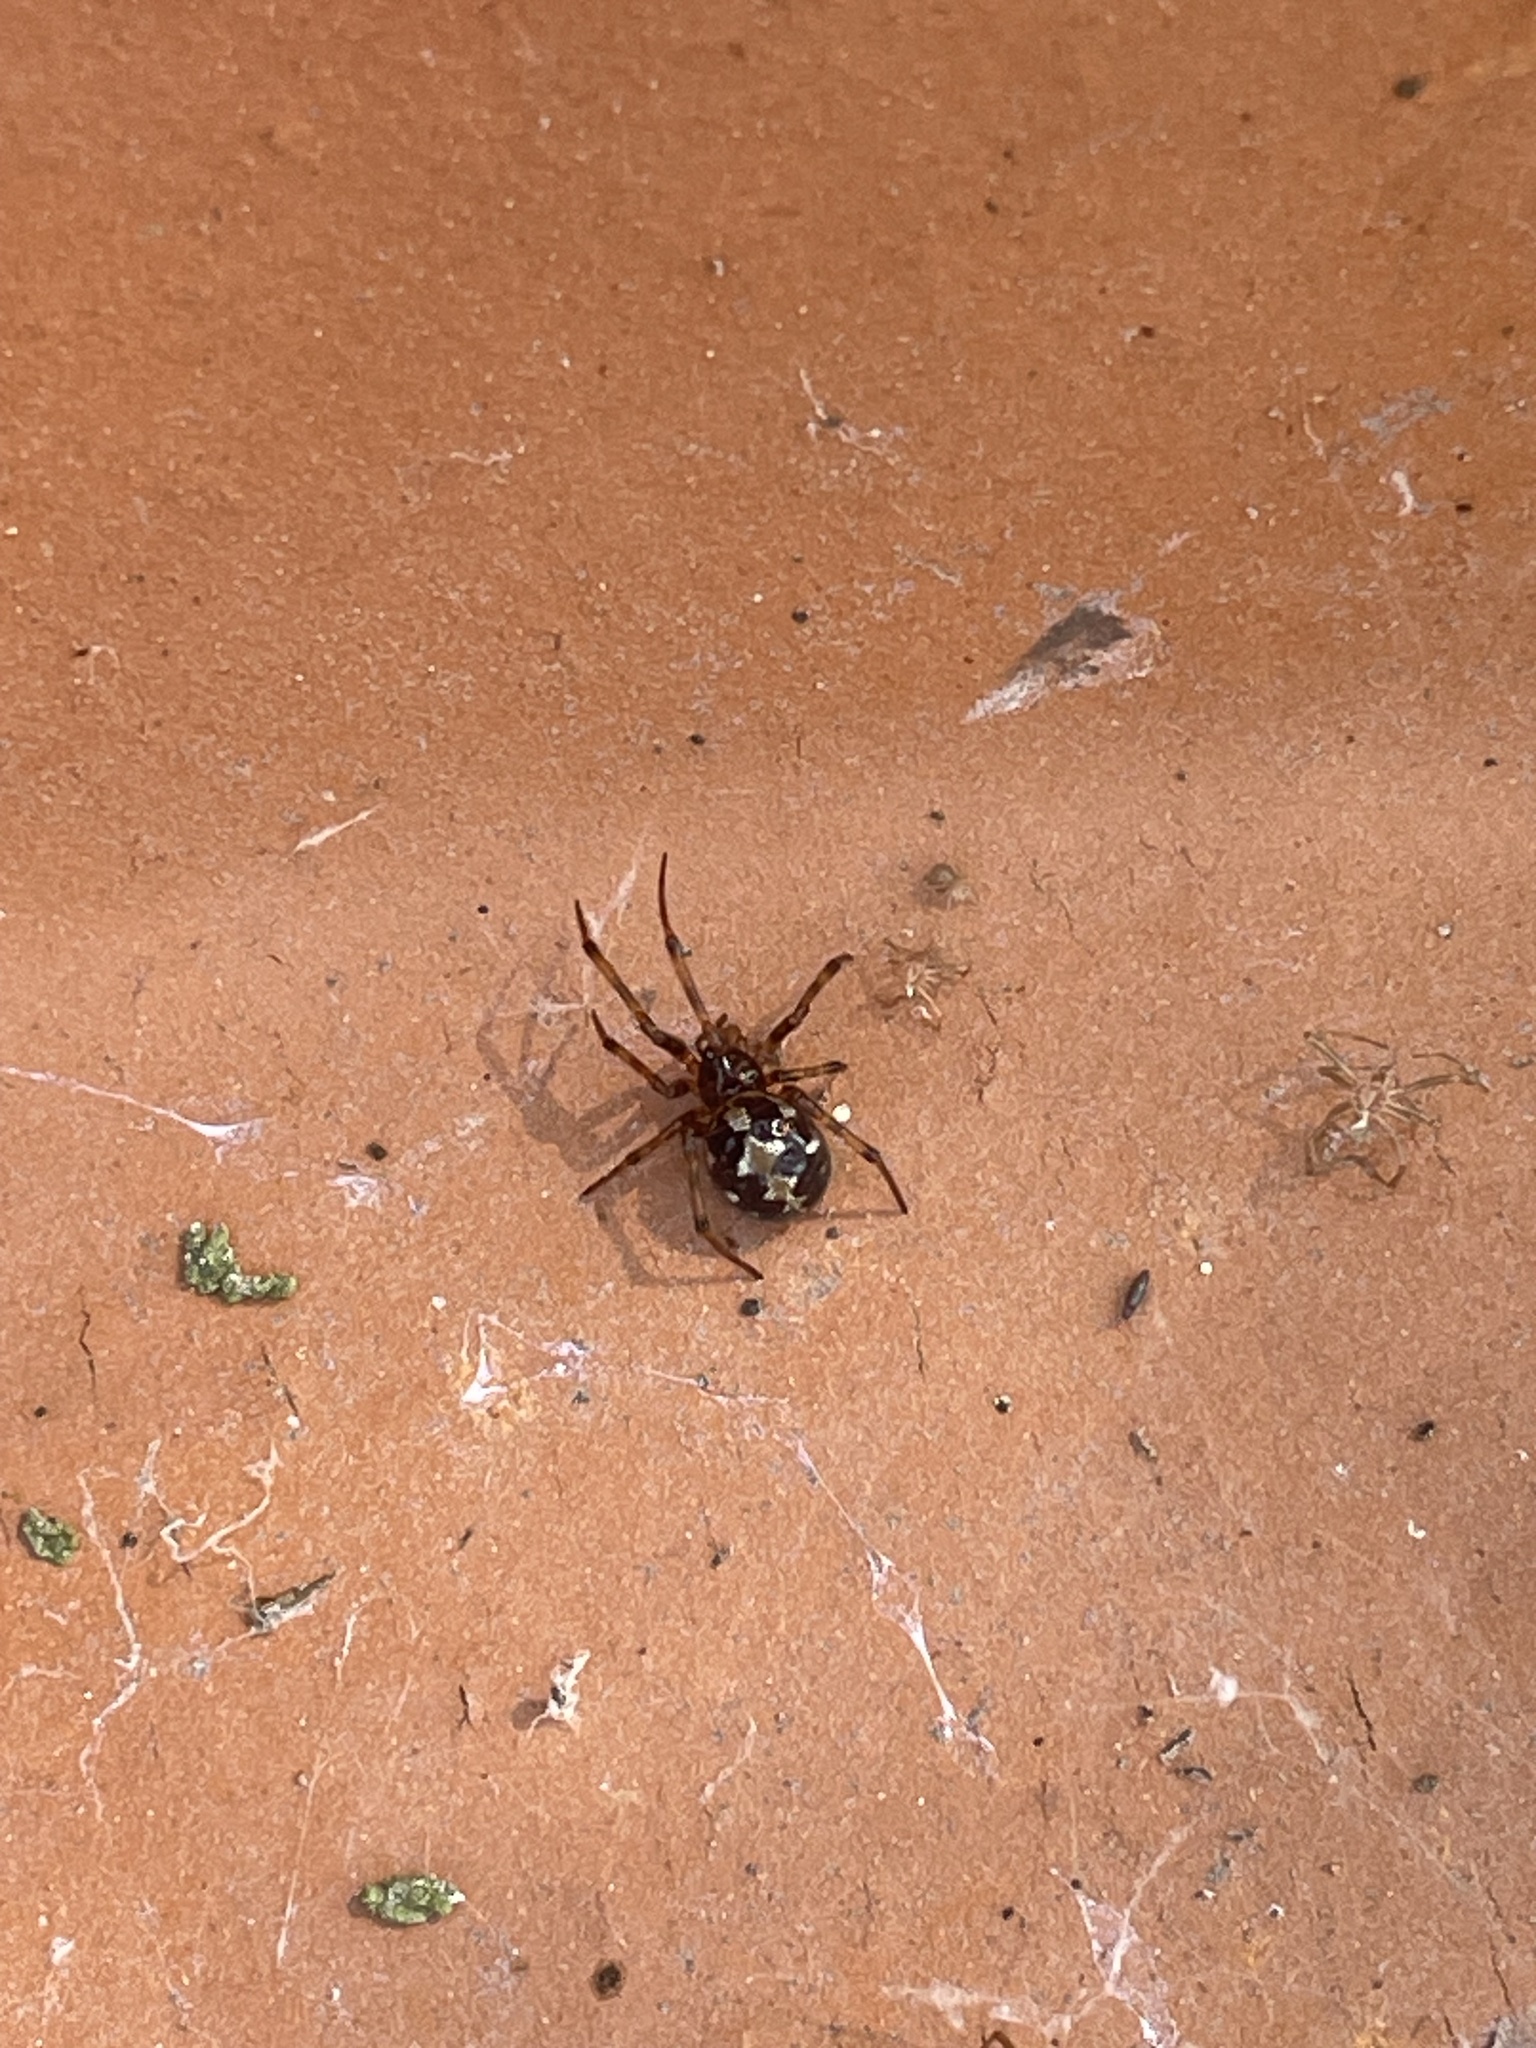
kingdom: Animalia
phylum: Arthropoda
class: Arachnida
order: Araneae
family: Theridiidae
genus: Steatoda
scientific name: Steatoda triangulosa
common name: Triangulate bud spider
